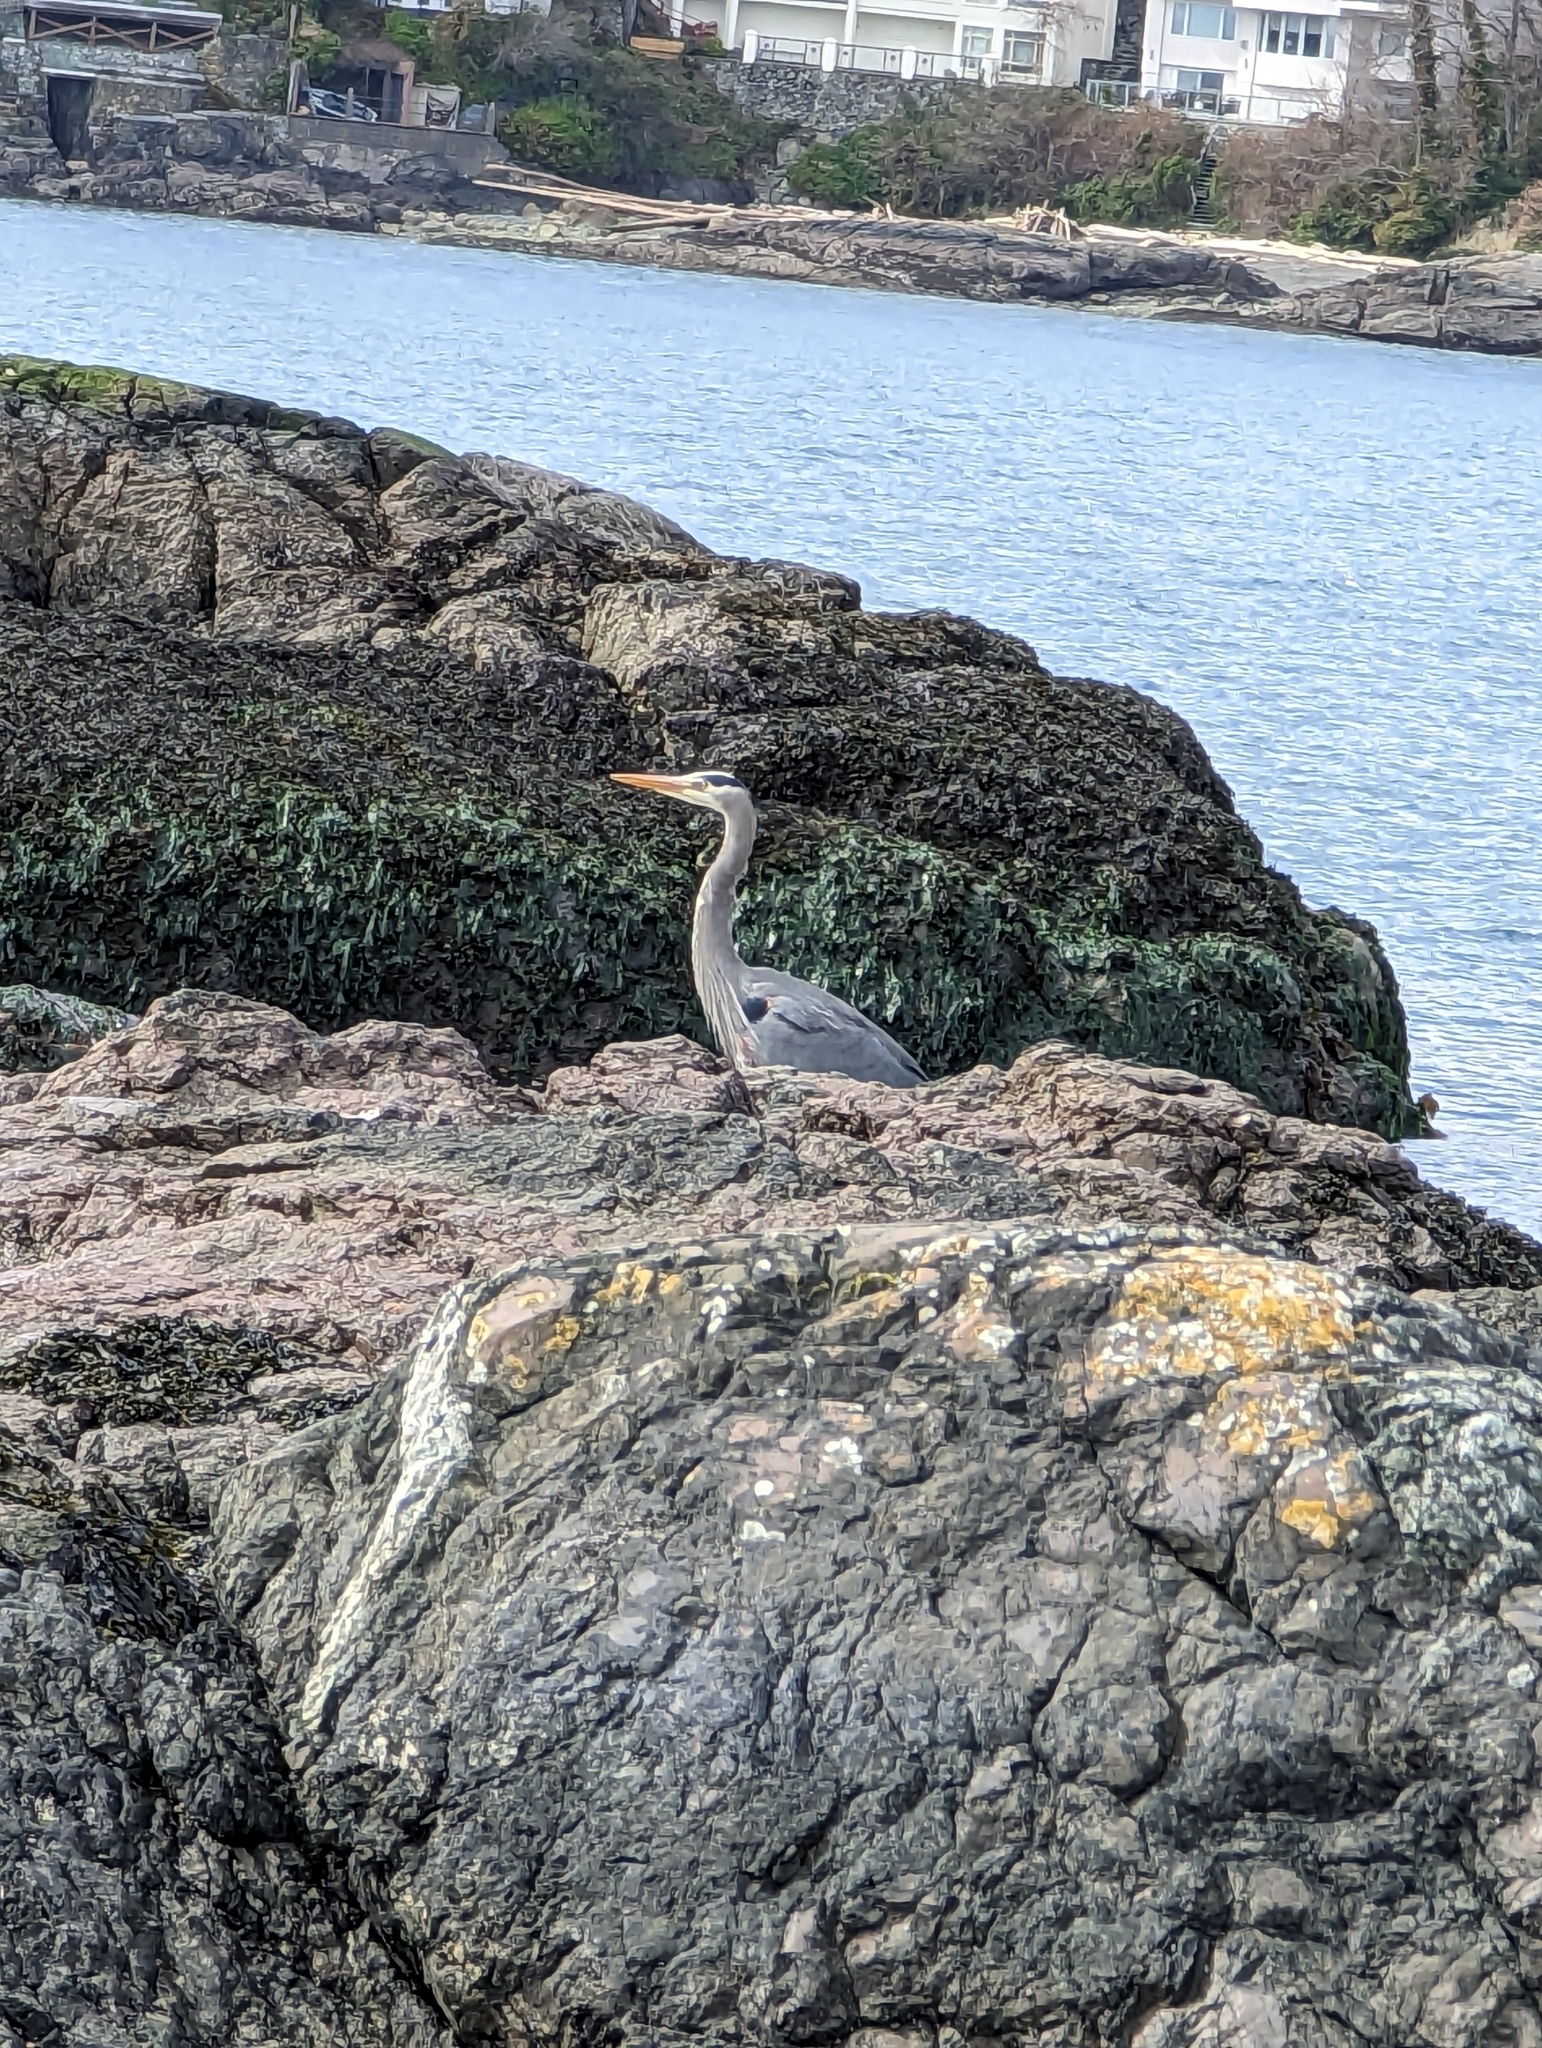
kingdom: Animalia
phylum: Chordata
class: Aves
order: Pelecaniformes
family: Ardeidae
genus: Ardea
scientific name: Ardea herodias
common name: Great blue heron
